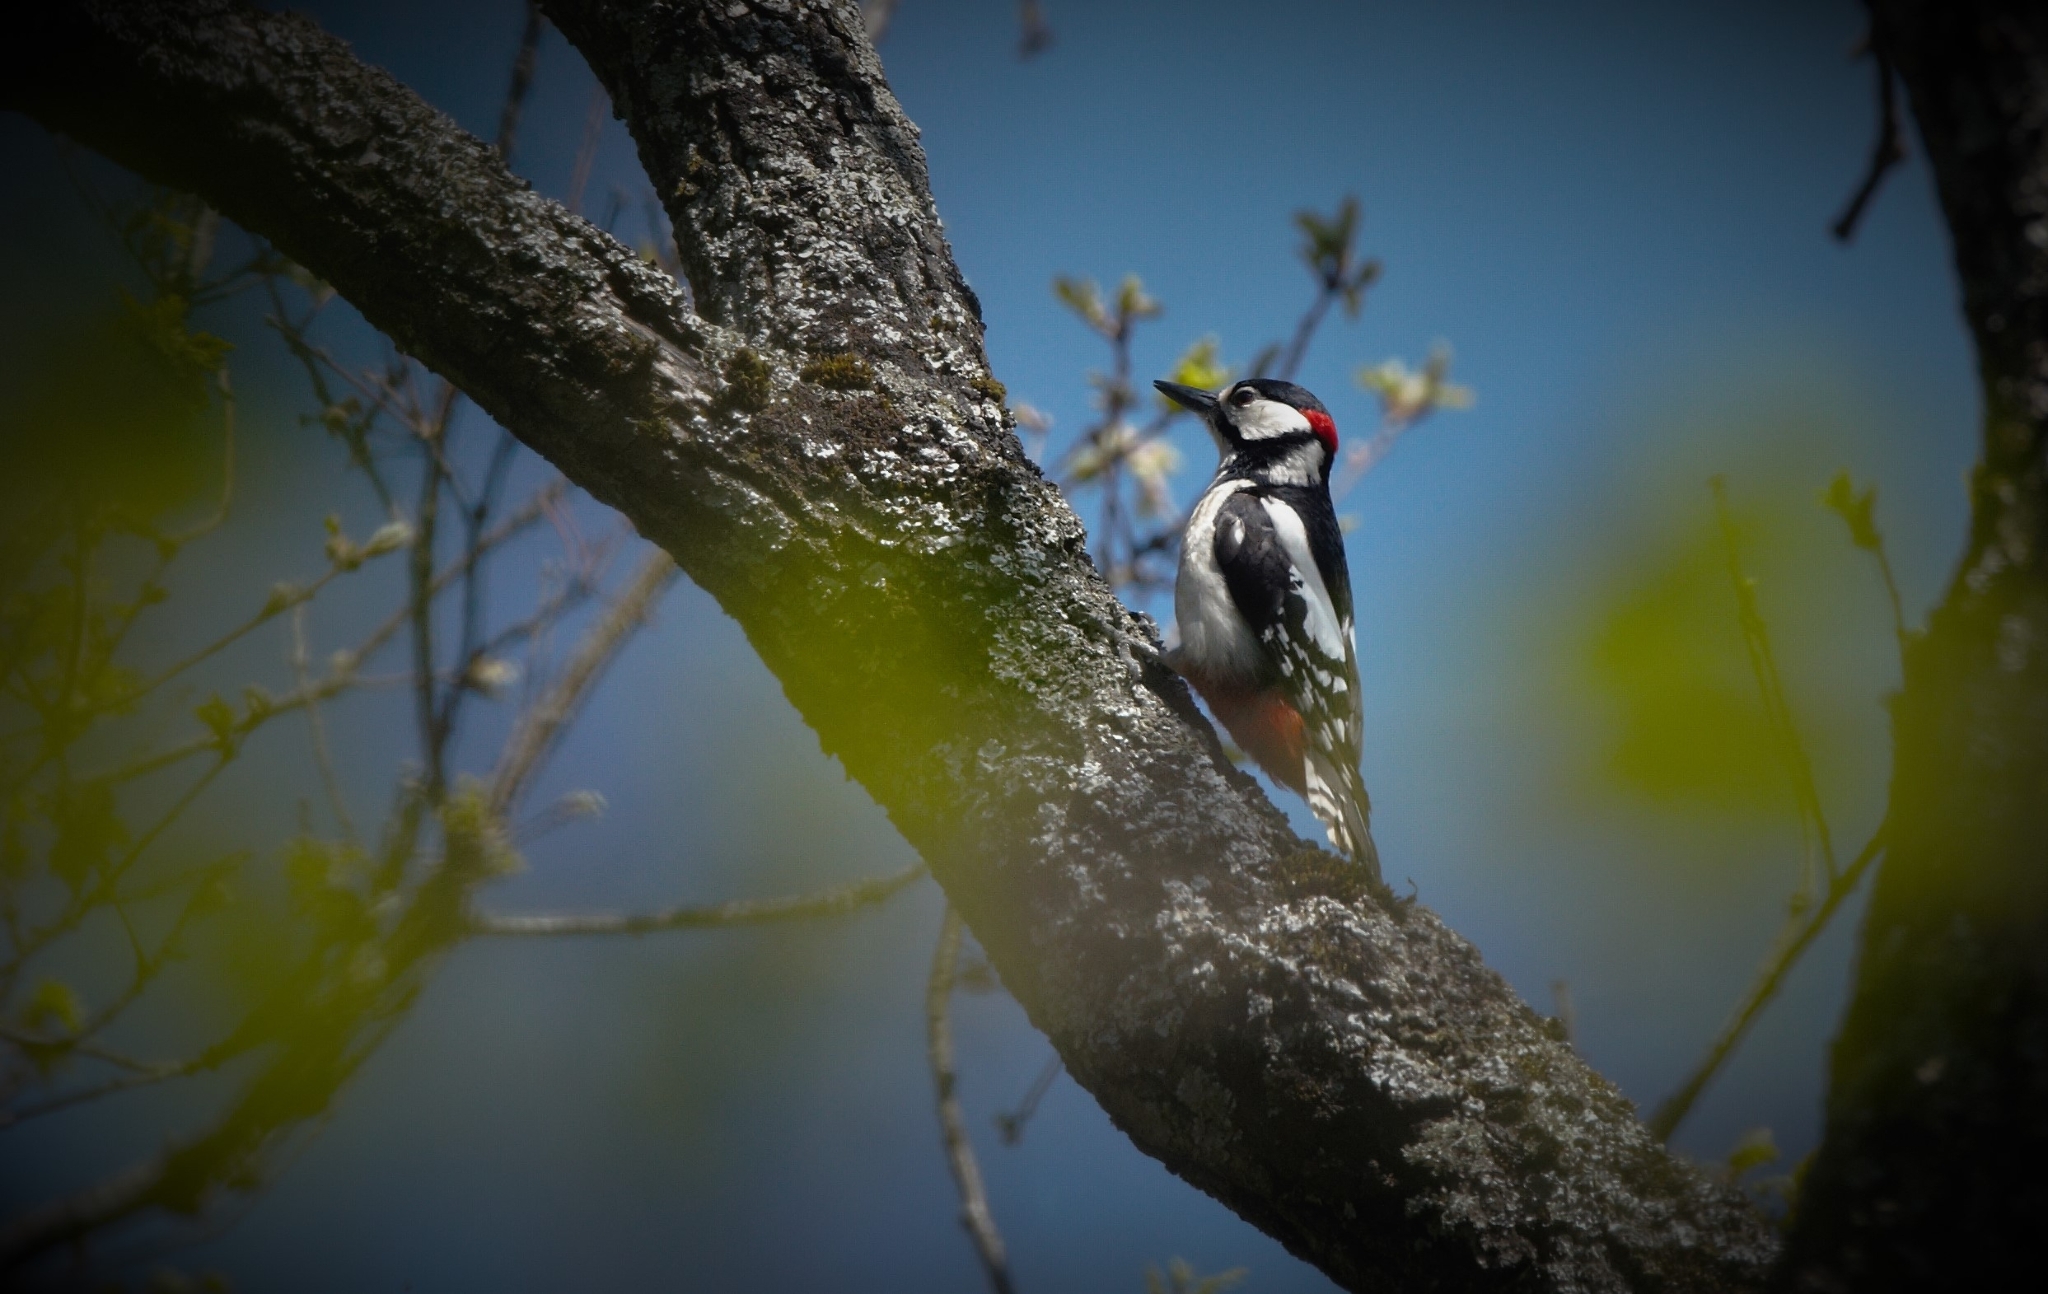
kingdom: Animalia
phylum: Chordata
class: Aves
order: Piciformes
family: Picidae
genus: Dendrocopos
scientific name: Dendrocopos major
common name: Great spotted woodpecker
